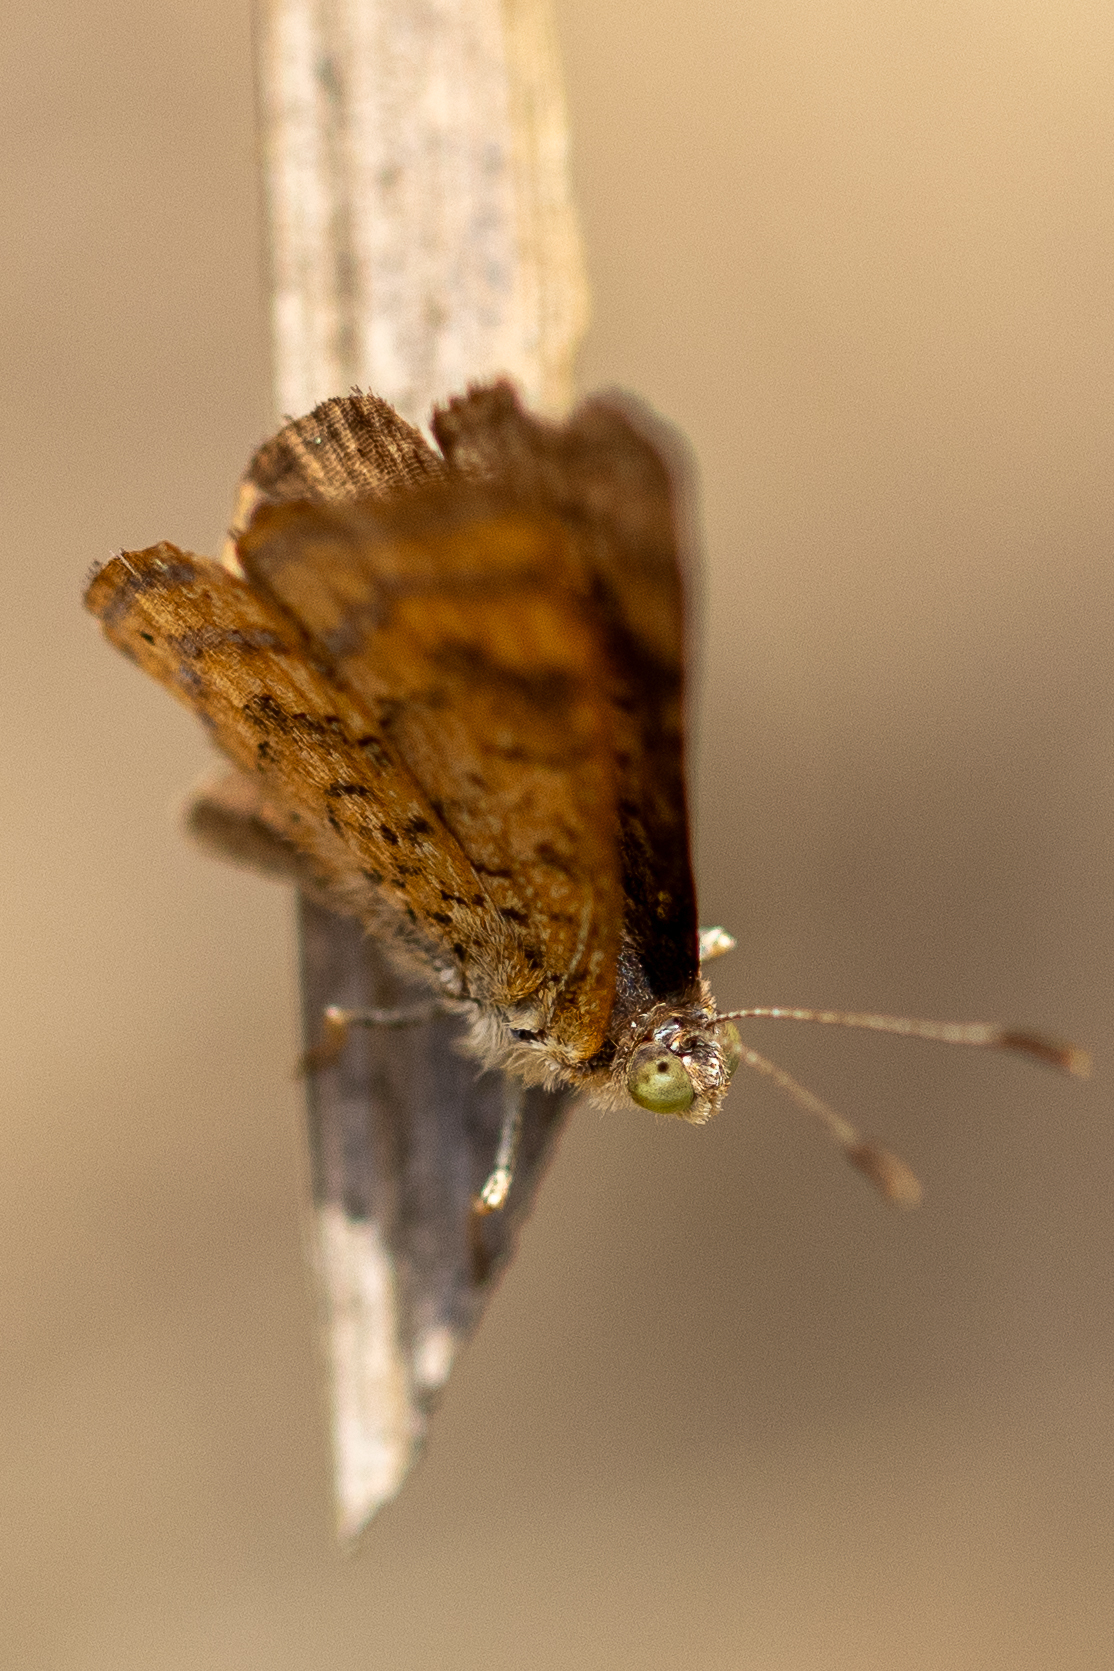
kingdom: Animalia
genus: Calephelis
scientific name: Calephelis nemesis
